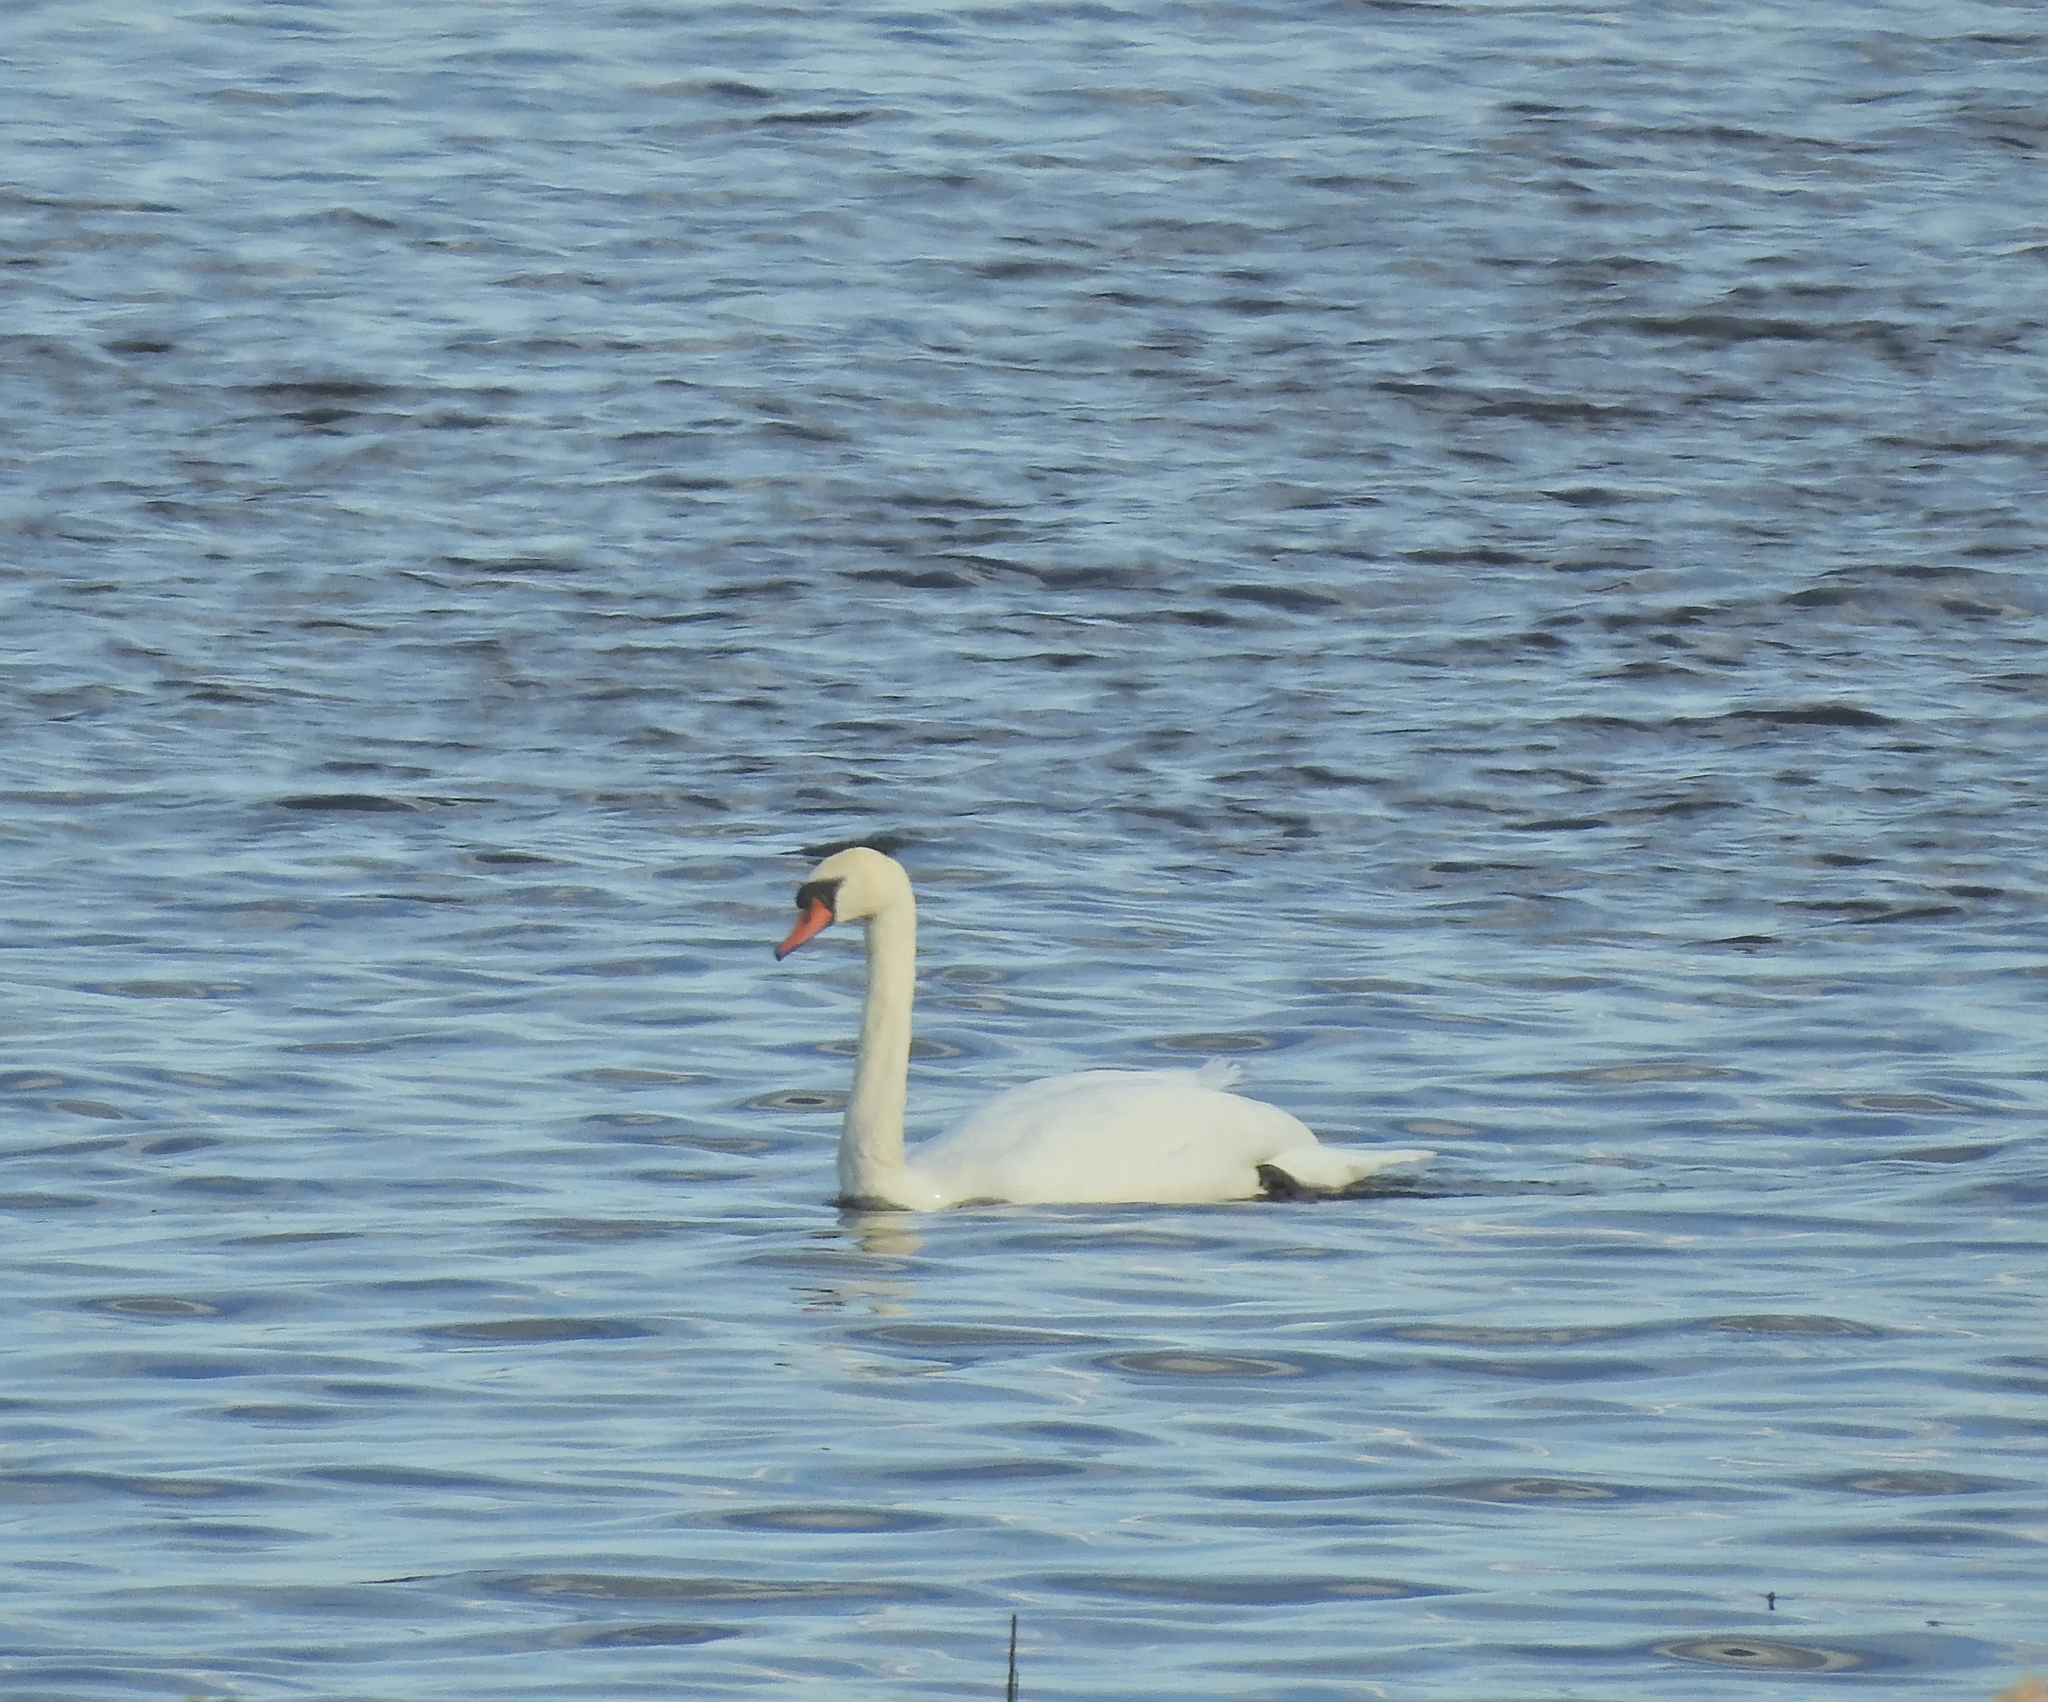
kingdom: Animalia
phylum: Chordata
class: Aves
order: Anseriformes
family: Anatidae
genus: Cygnus
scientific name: Cygnus olor
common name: Mute swan
